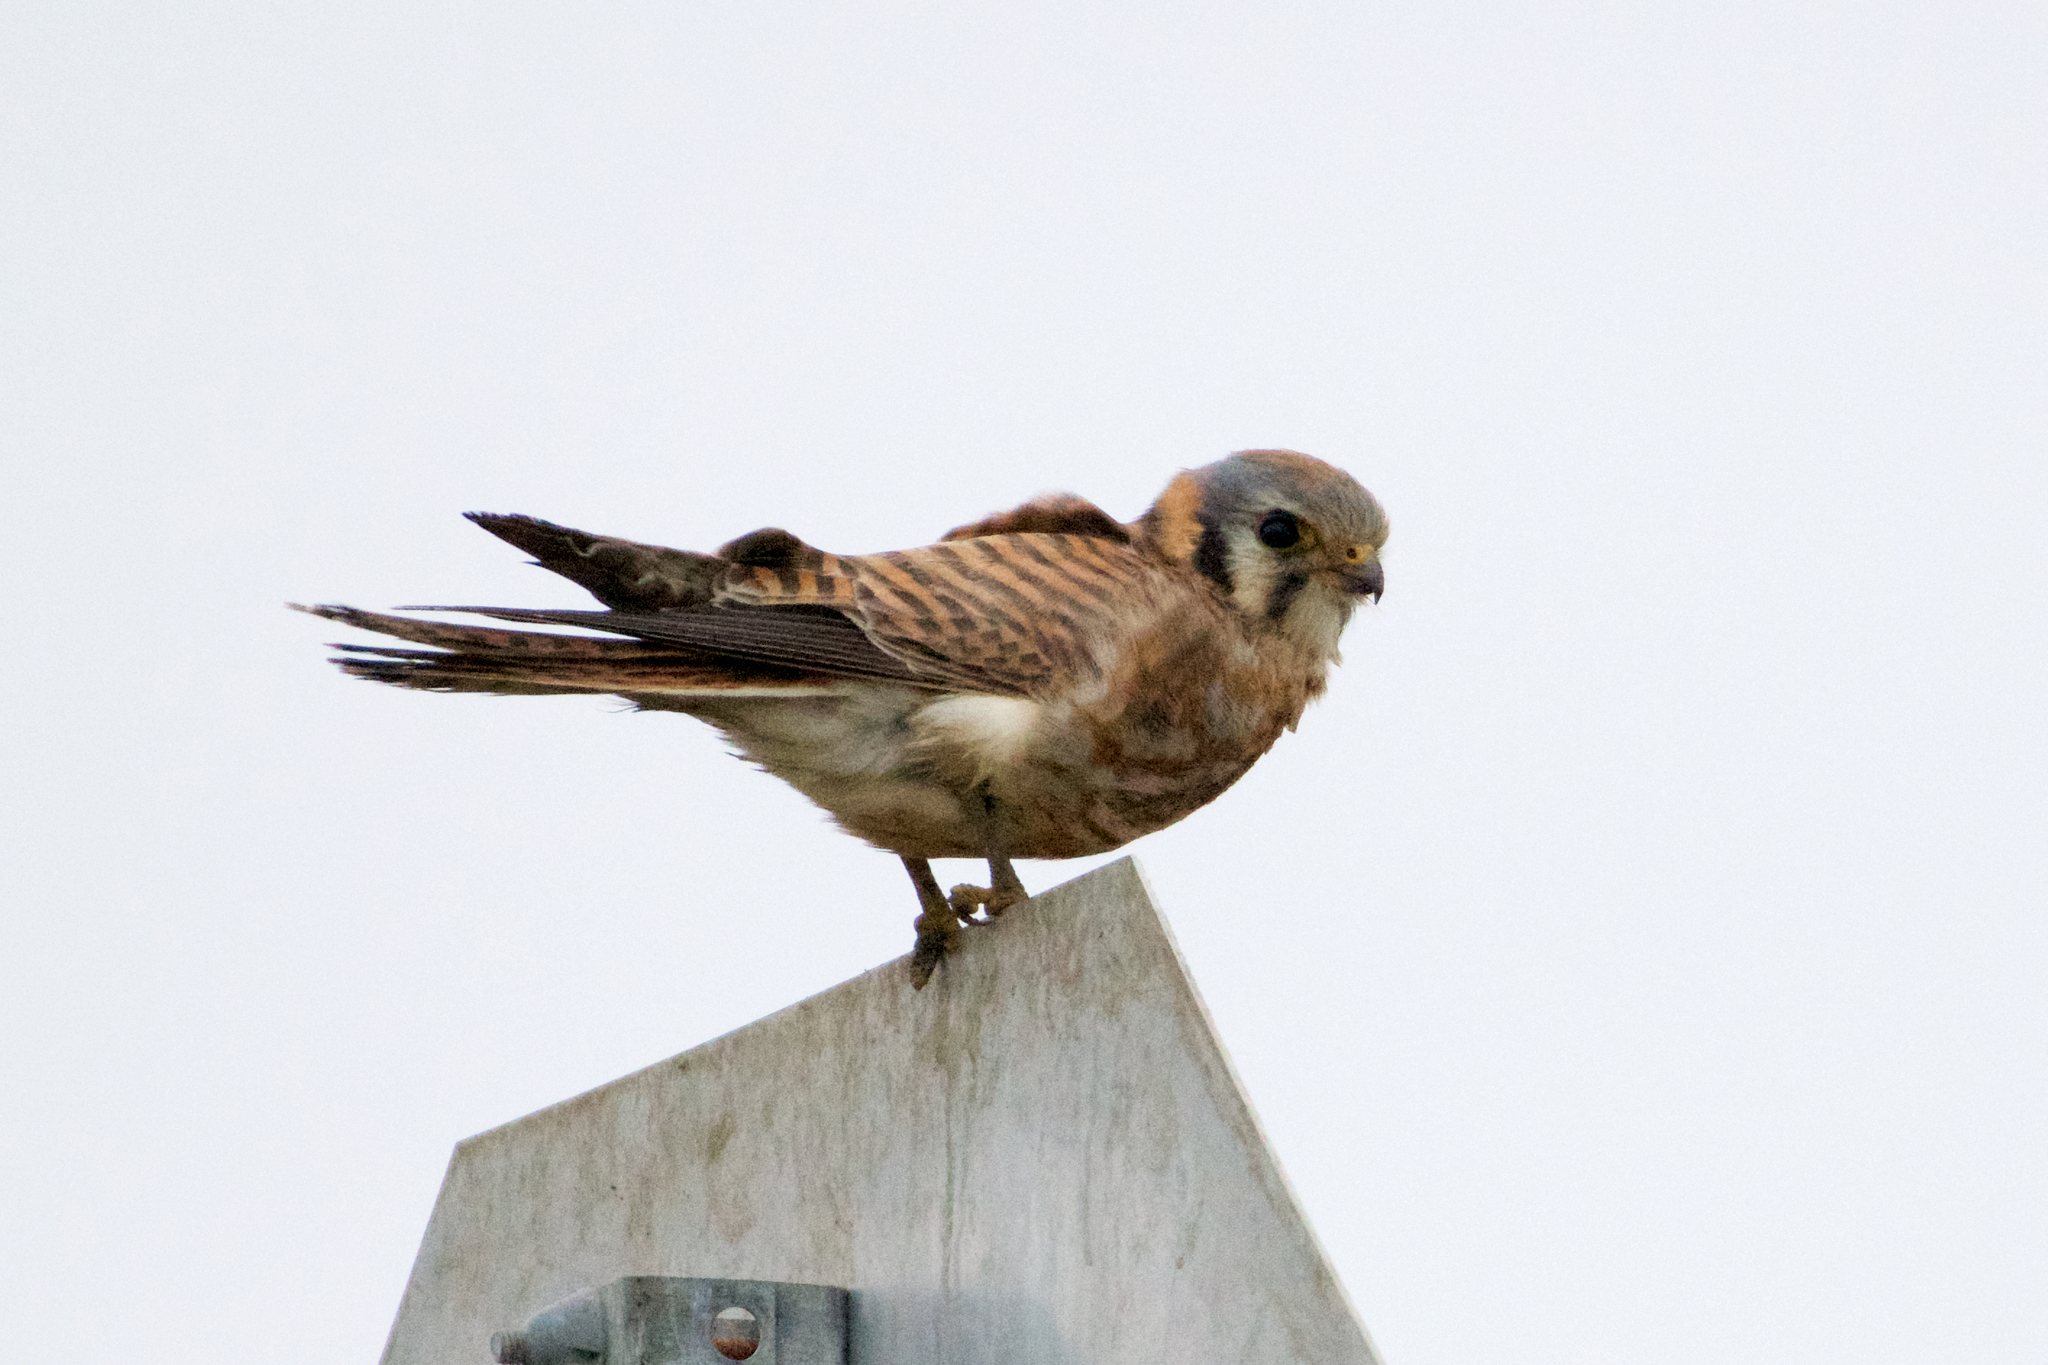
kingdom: Animalia
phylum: Chordata
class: Aves
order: Falconiformes
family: Falconidae
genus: Falco
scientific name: Falco sparverius
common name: American kestrel
